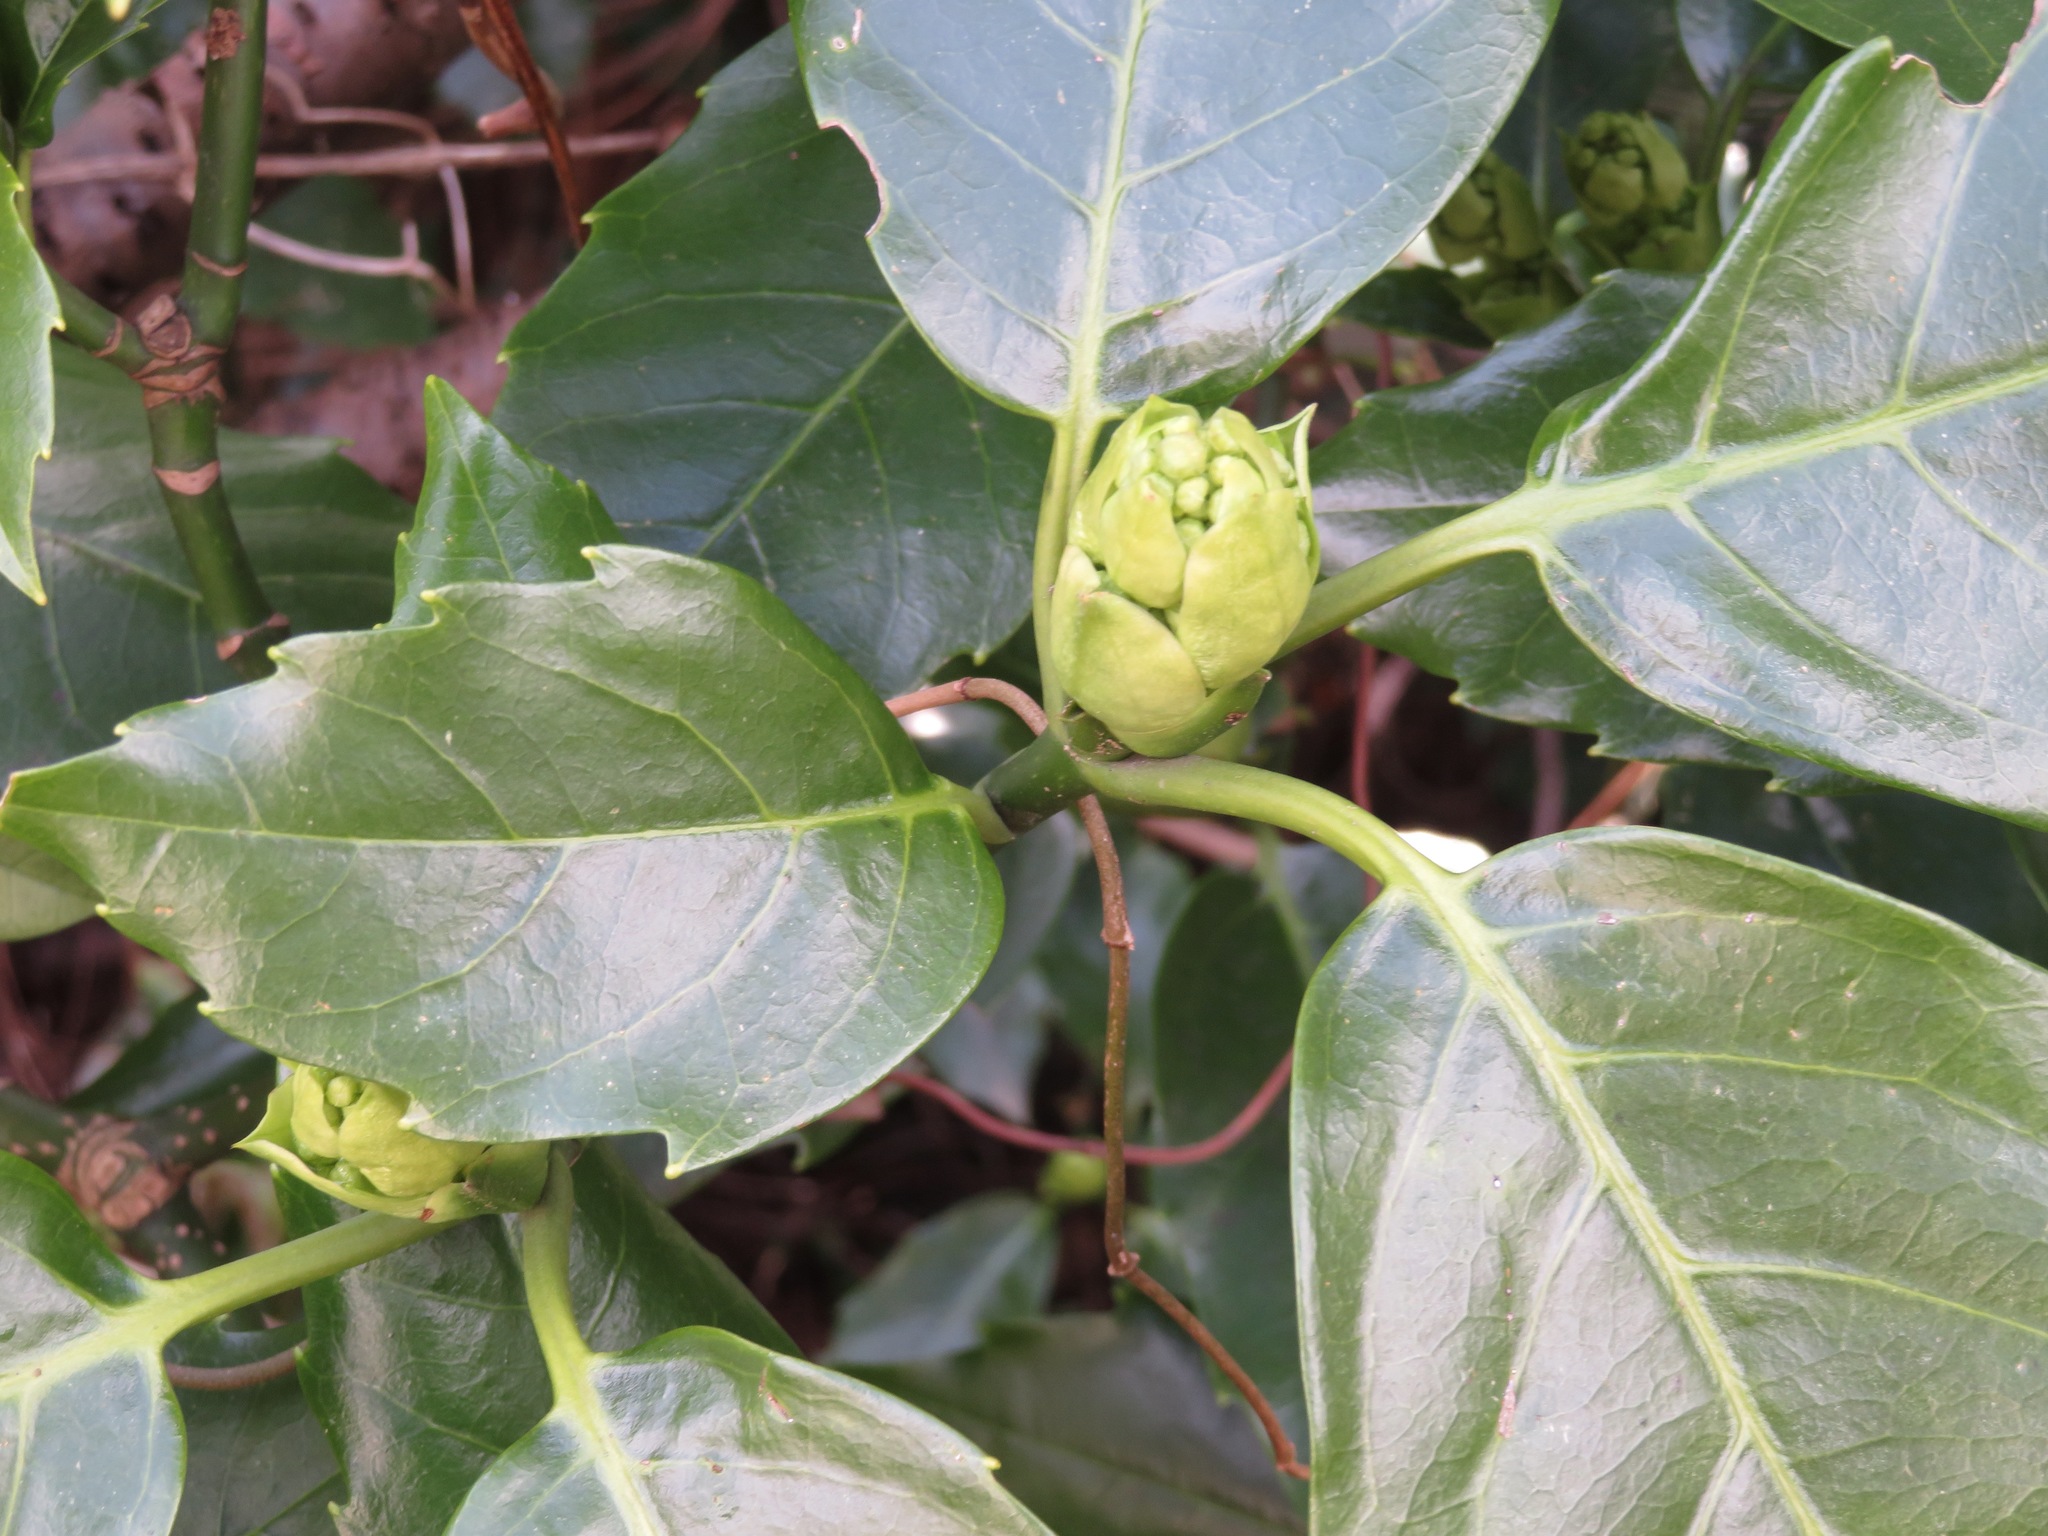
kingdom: Plantae
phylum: Tracheophyta
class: Magnoliopsida
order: Garryales
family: Garryaceae
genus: Aucuba
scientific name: Aucuba japonica
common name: Spotted-laurel
